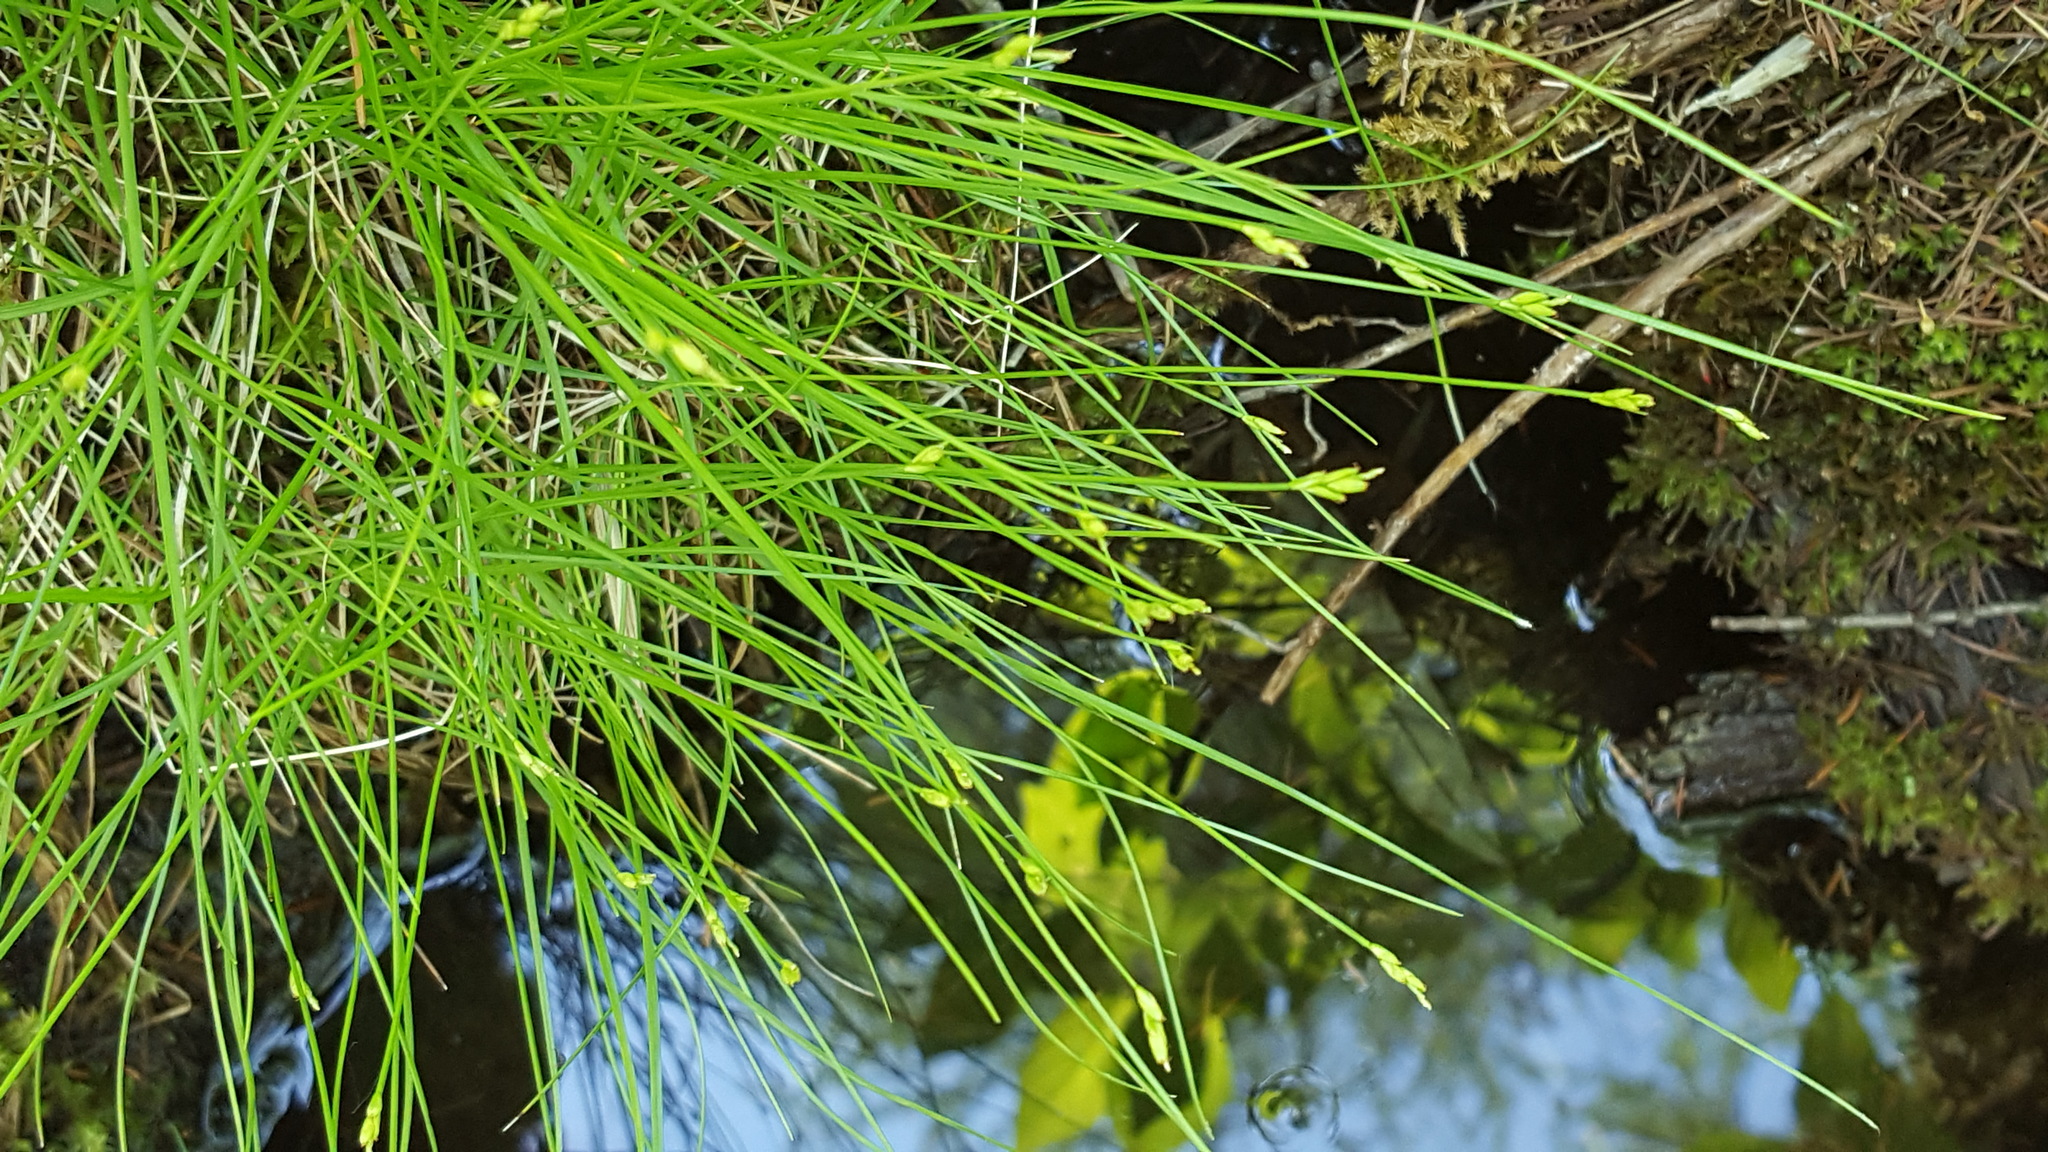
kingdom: Plantae
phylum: Tracheophyta
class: Liliopsida
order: Poales
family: Cyperaceae
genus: Carex
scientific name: Carex leptalea
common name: Bristly-stalked sedge
